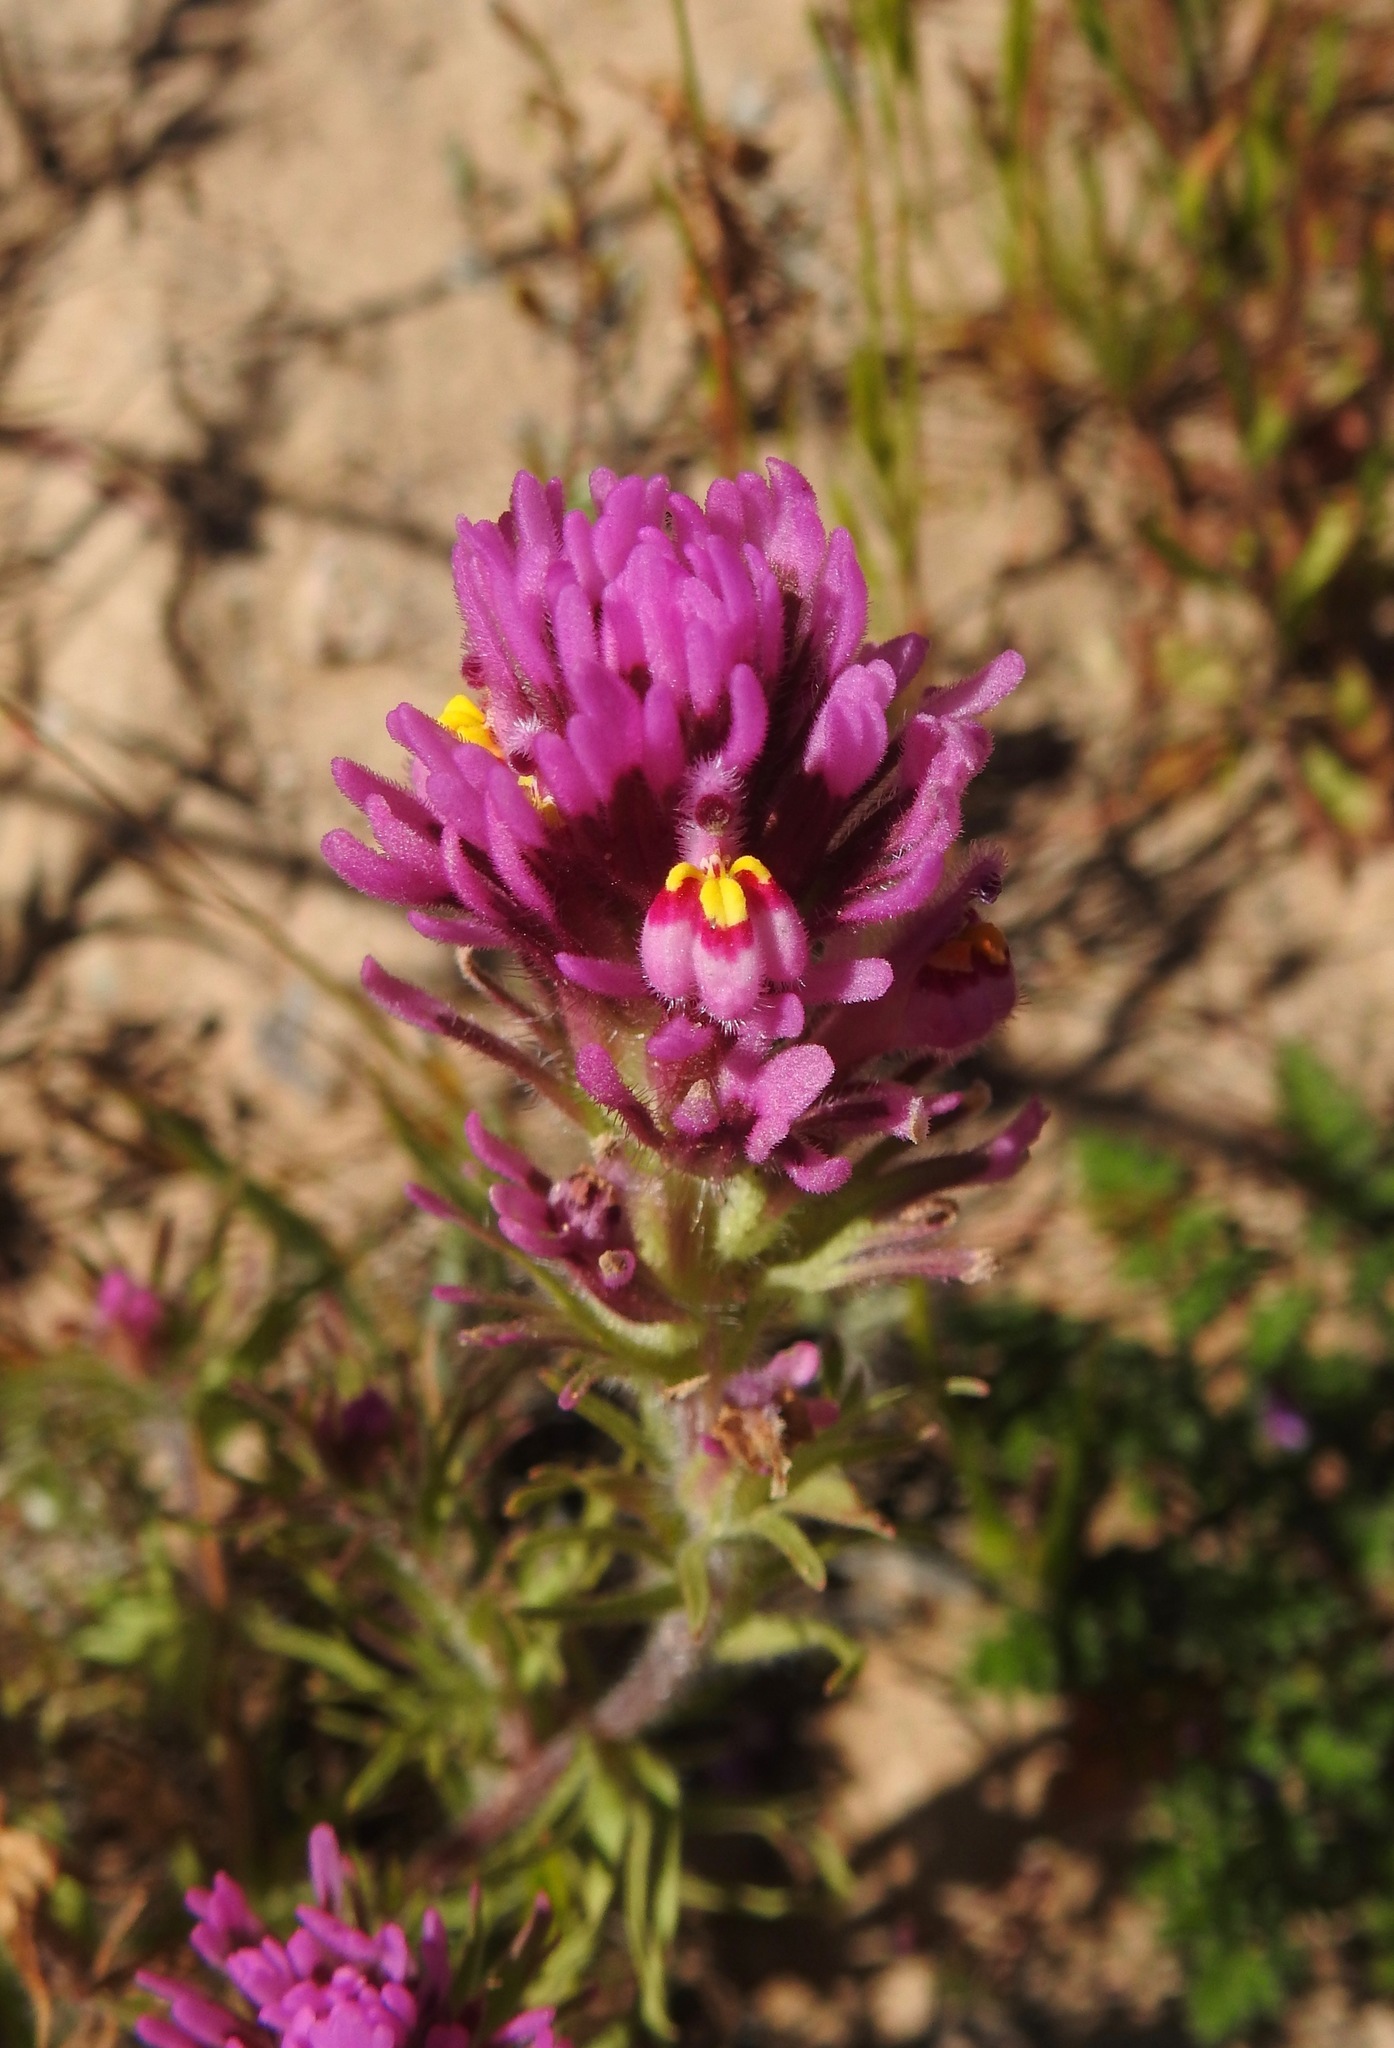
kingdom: Plantae
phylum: Tracheophyta
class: Magnoliopsida
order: Lamiales
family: Orobanchaceae
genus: Castilleja
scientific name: Castilleja exserta
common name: Purple owl-clover
